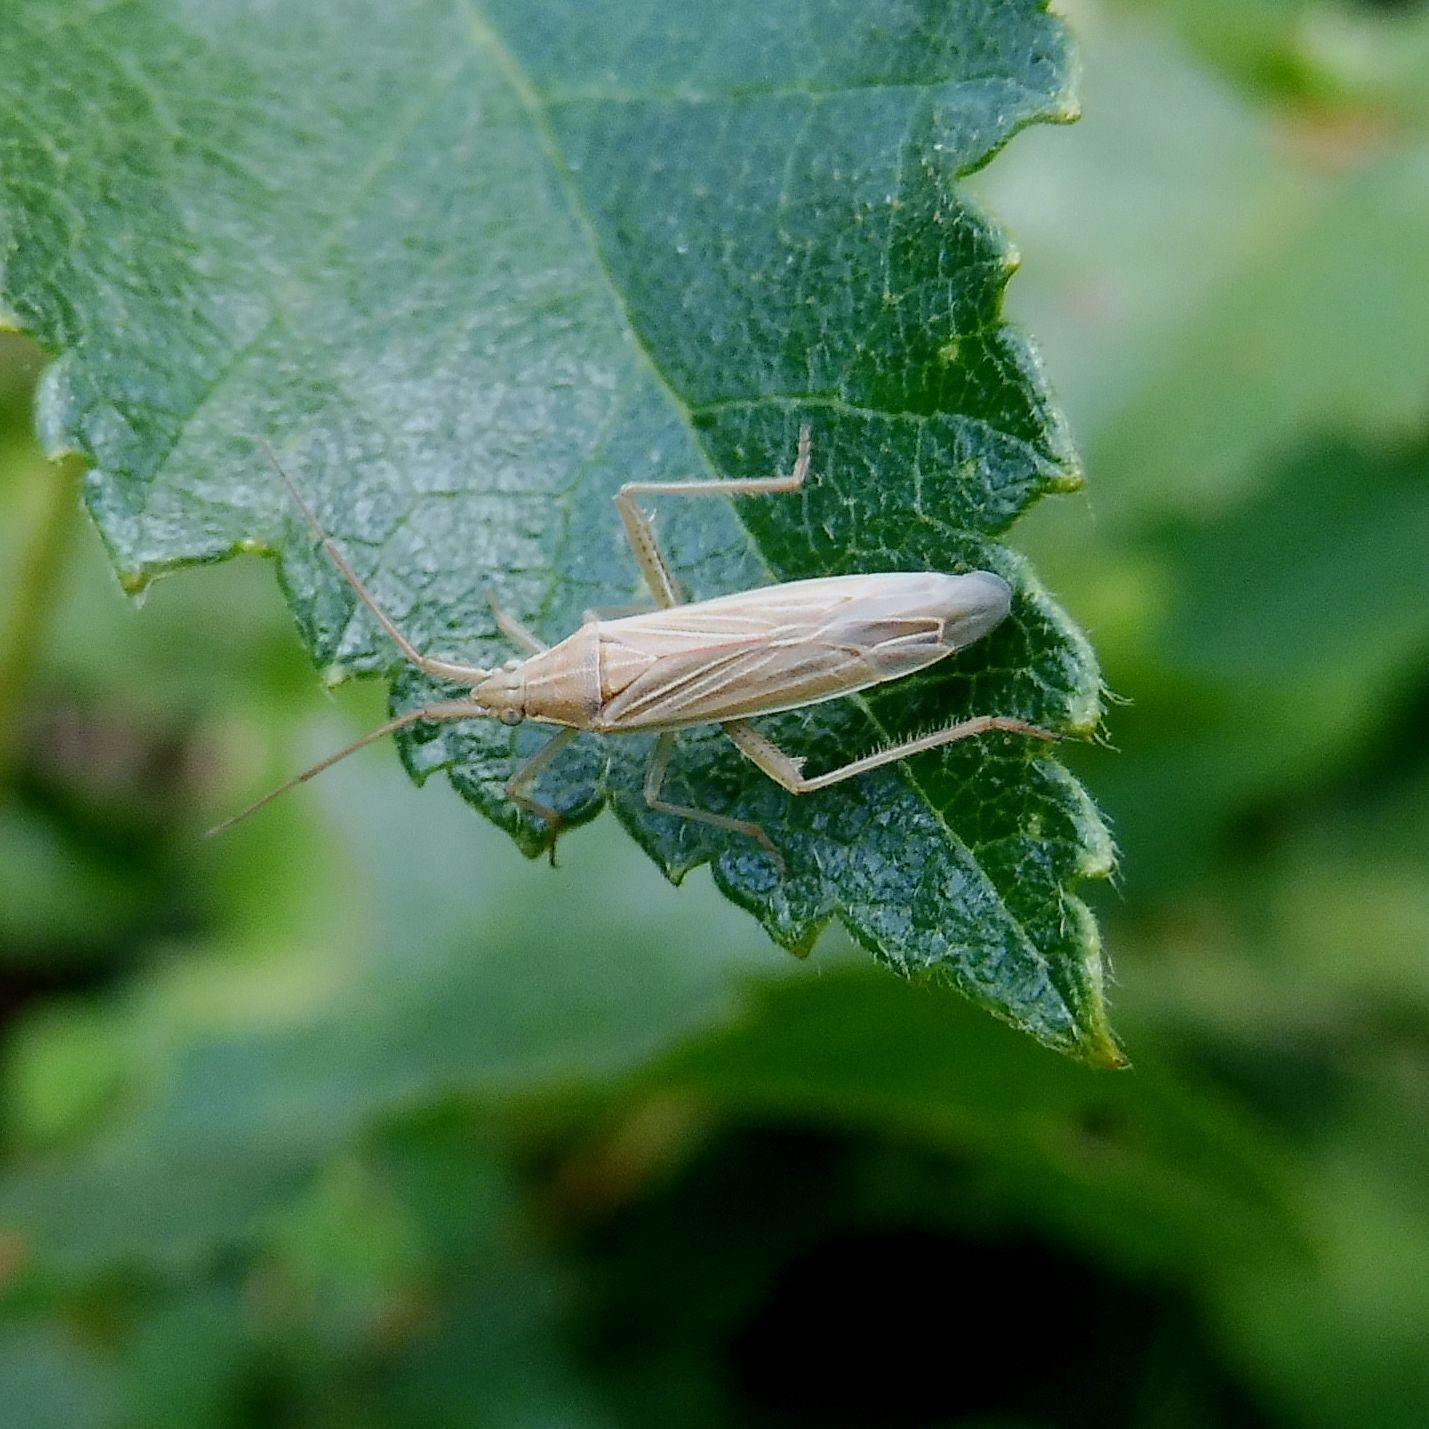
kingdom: Animalia
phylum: Arthropoda
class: Insecta
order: Hemiptera
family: Miridae
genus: Stenodema
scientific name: Stenodema calcarata
